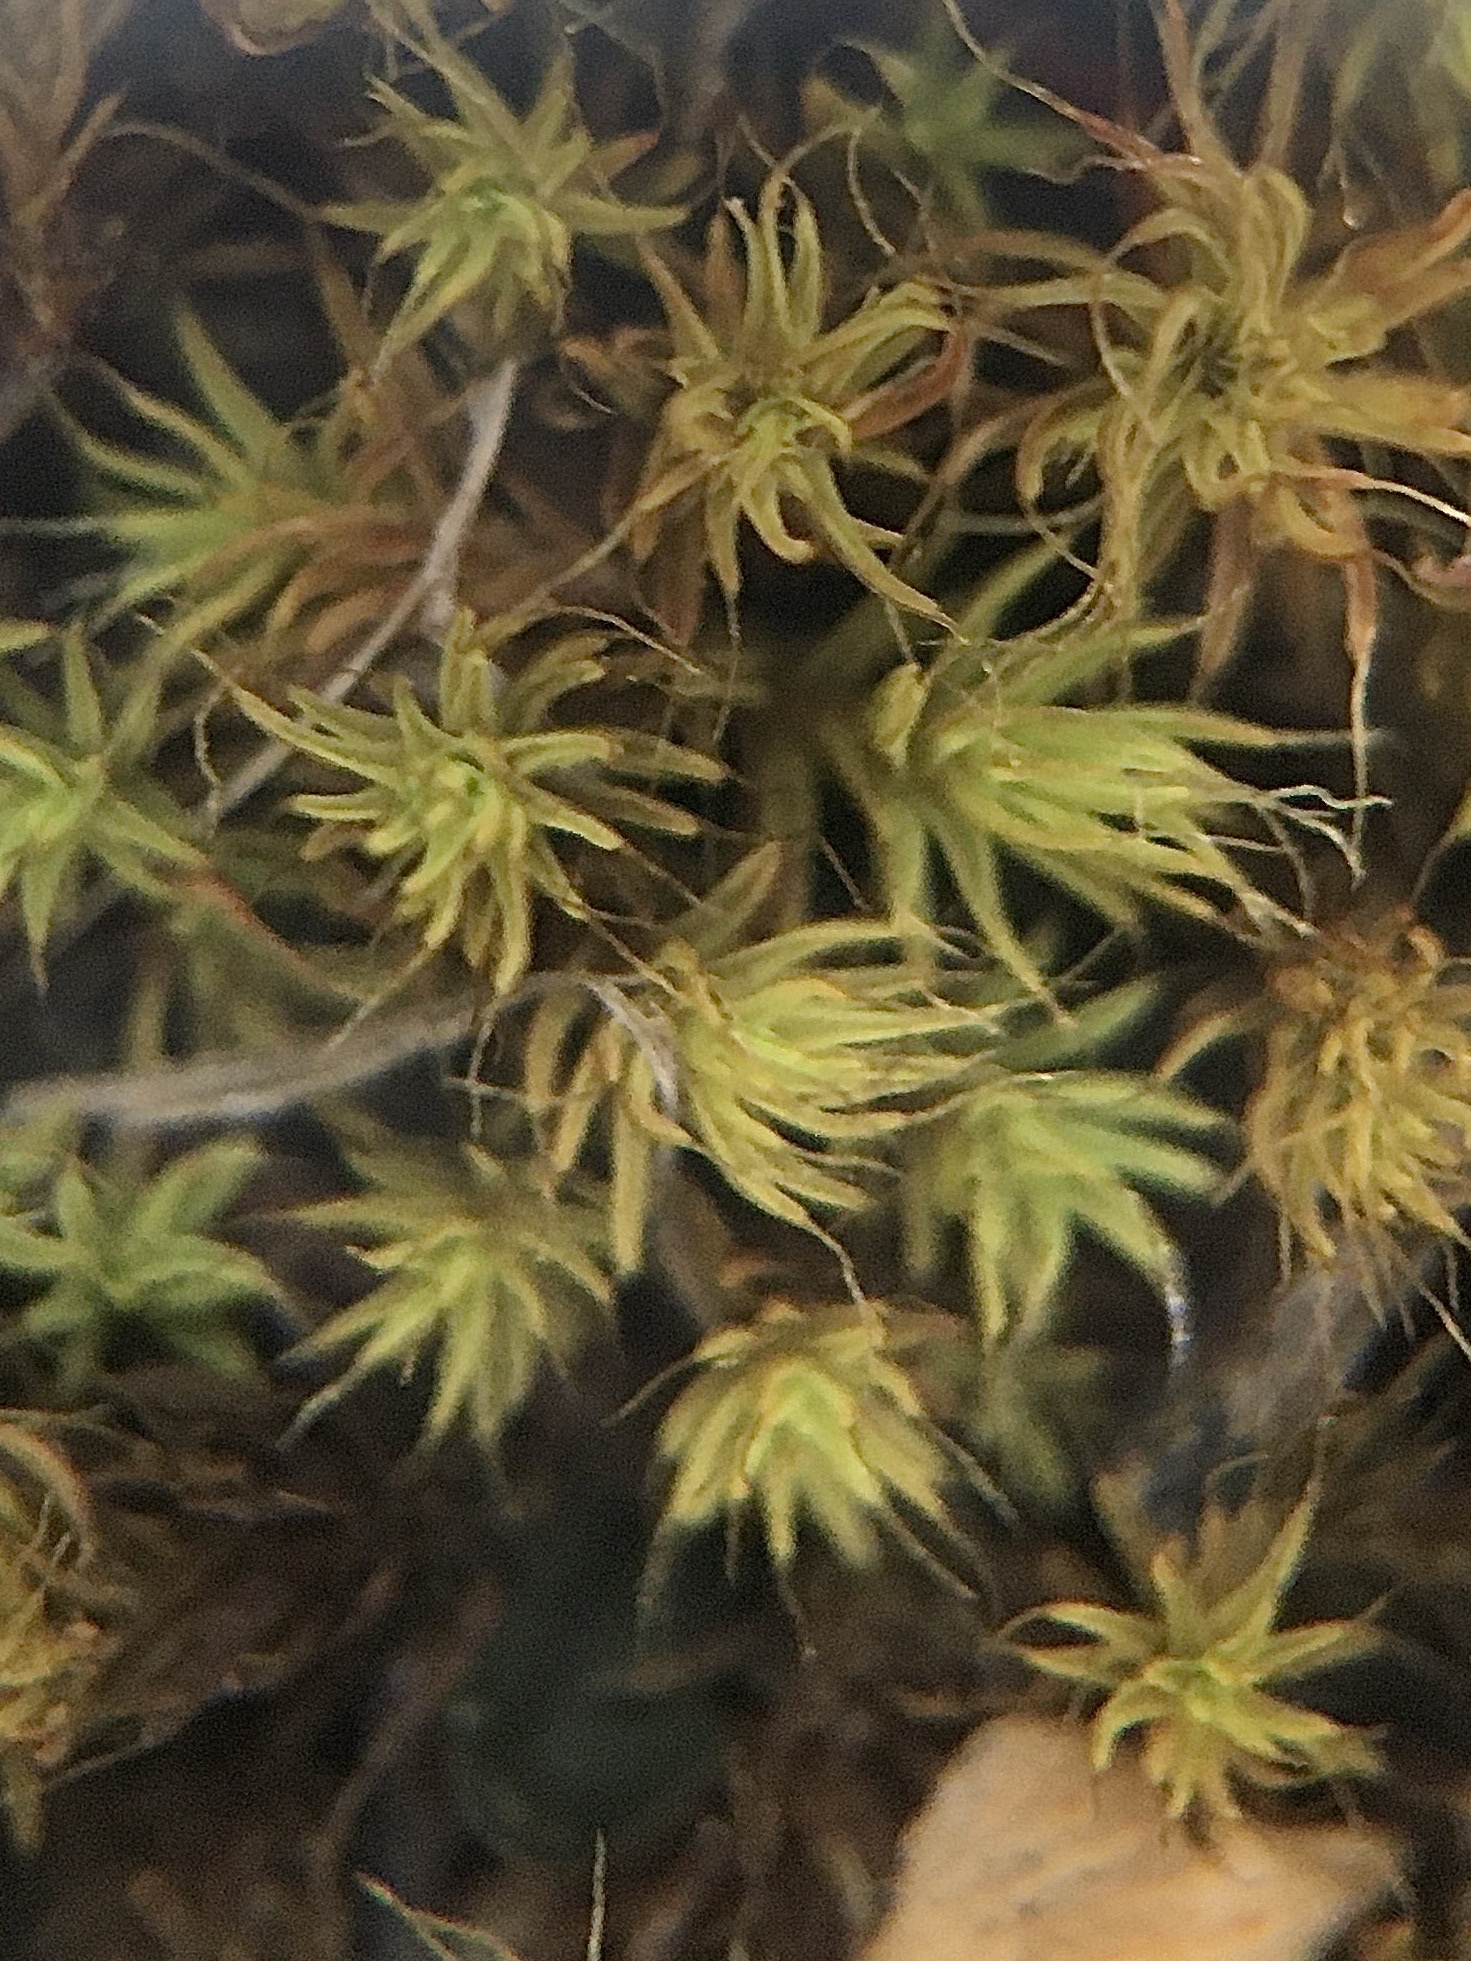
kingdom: Plantae
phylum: Bryophyta
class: Bryopsida
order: Pottiales
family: Pottiaceae
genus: Pseudocrossidium
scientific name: Pseudocrossidium crinitum
